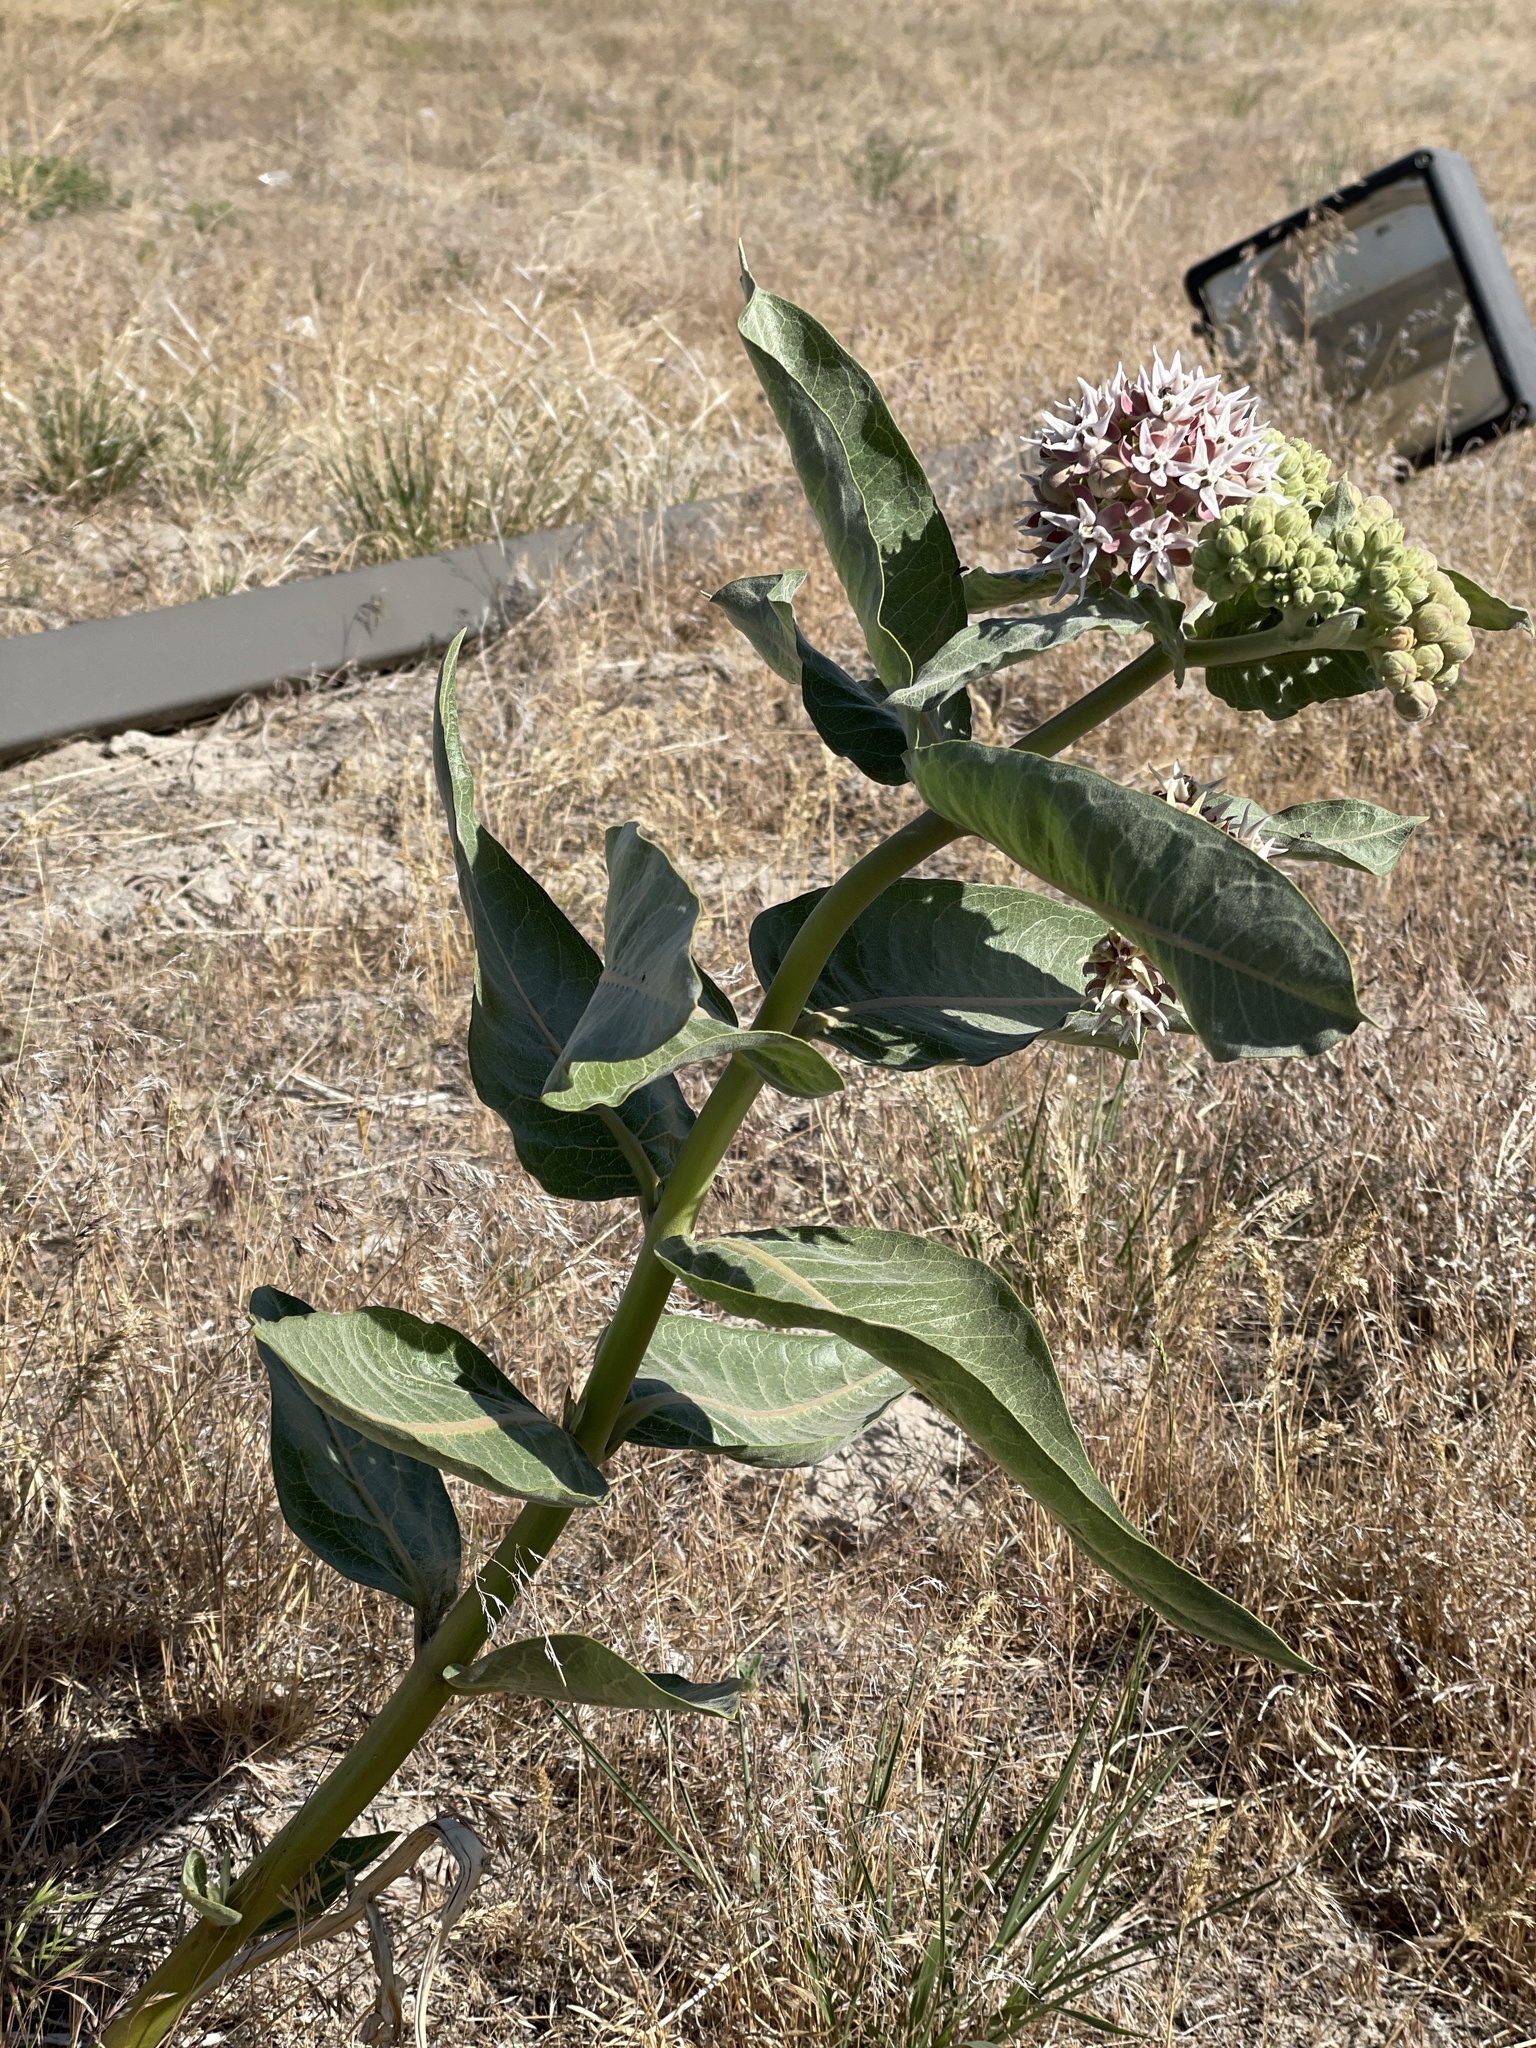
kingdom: Plantae
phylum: Tracheophyta
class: Magnoliopsida
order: Gentianales
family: Apocynaceae
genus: Asclepias
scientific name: Asclepias speciosa
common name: Showy milkweed
